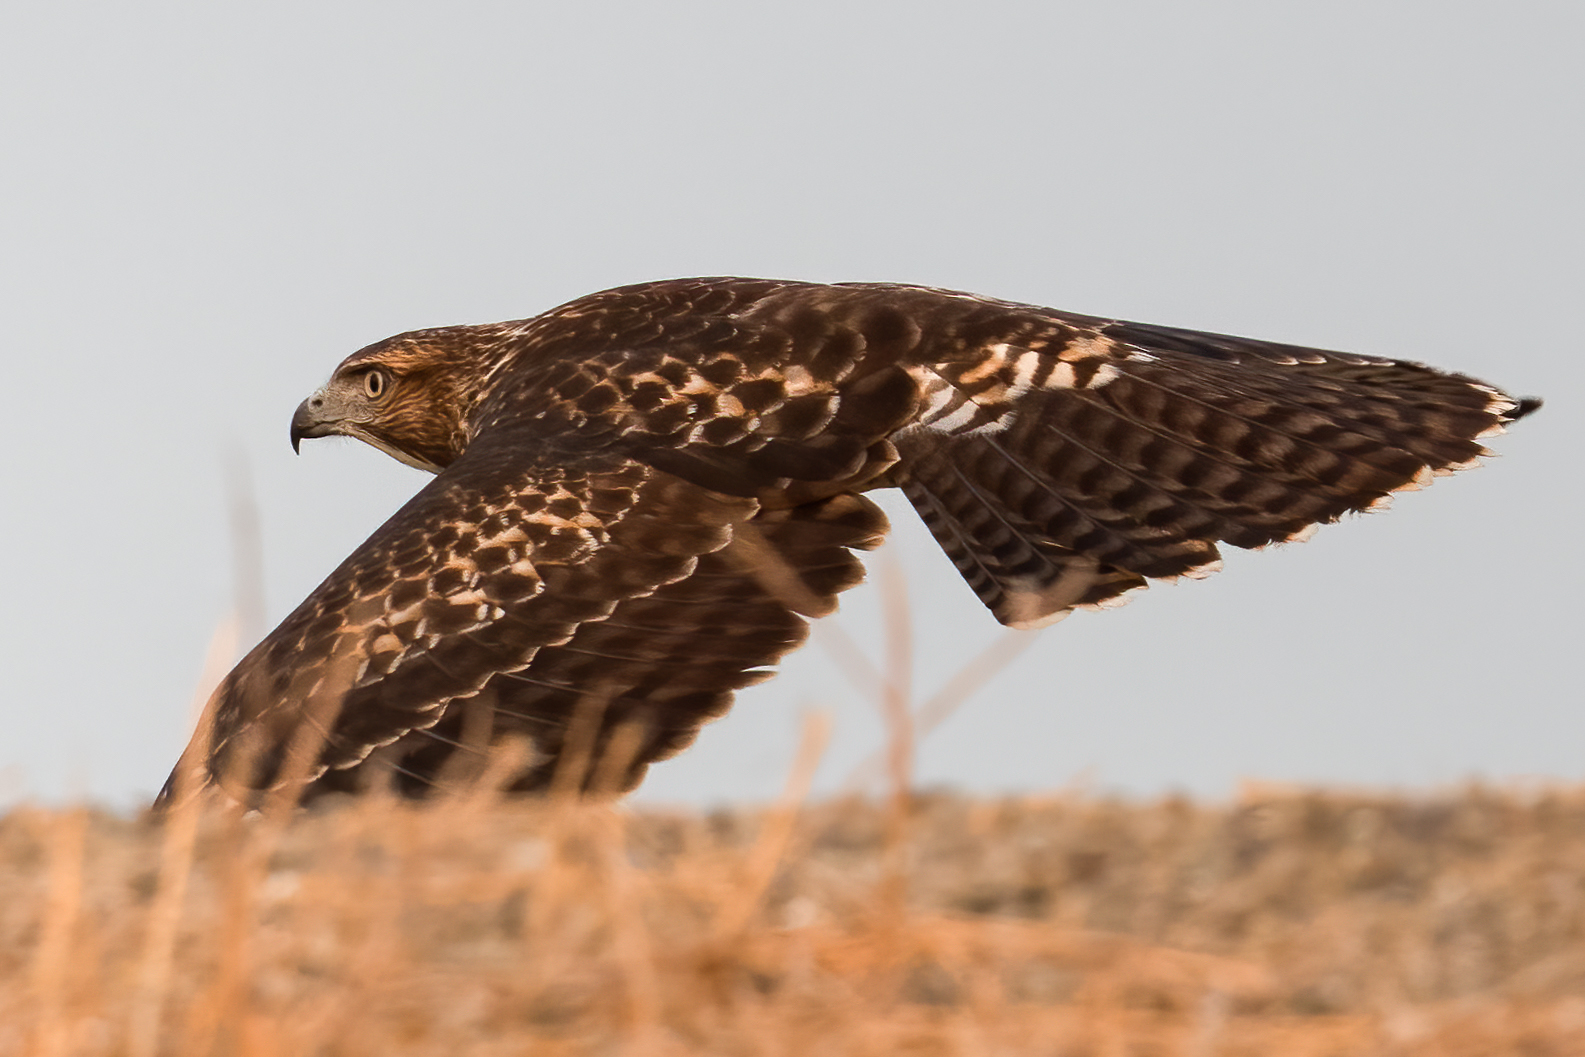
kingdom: Animalia
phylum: Chordata
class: Aves
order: Accipitriformes
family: Accipitridae
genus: Buteo
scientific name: Buteo jamaicensis
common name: Red-tailed hawk
